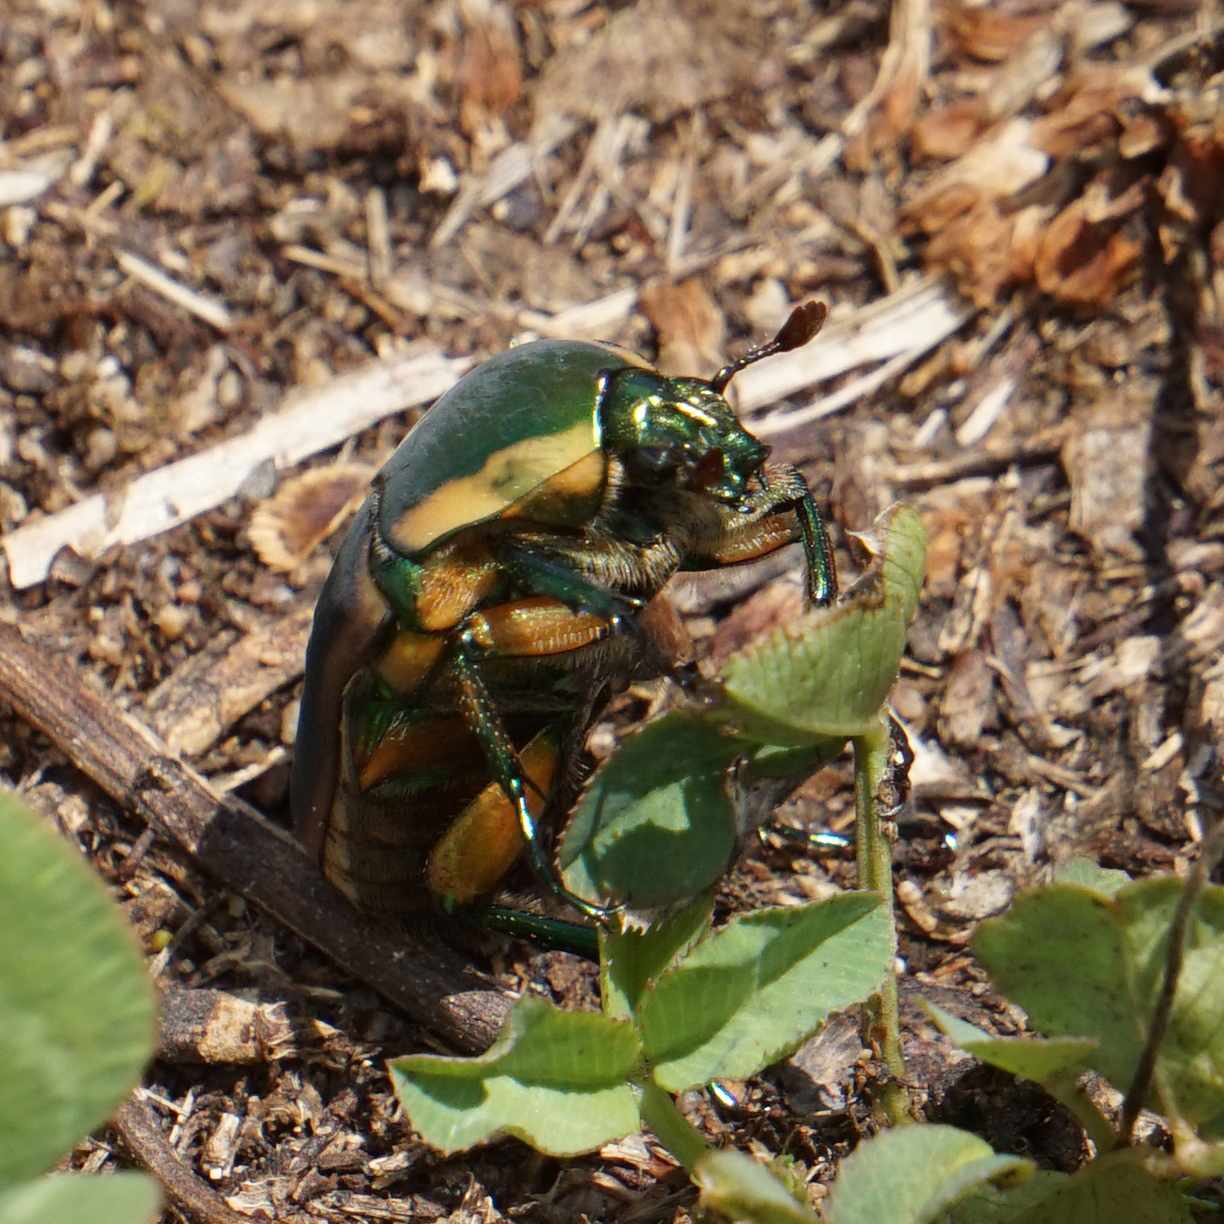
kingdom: Animalia
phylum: Arthropoda
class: Insecta
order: Coleoptera
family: Scarabaeidae
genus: Cotinis
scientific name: Cotinis nitida
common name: Common green june beetle
